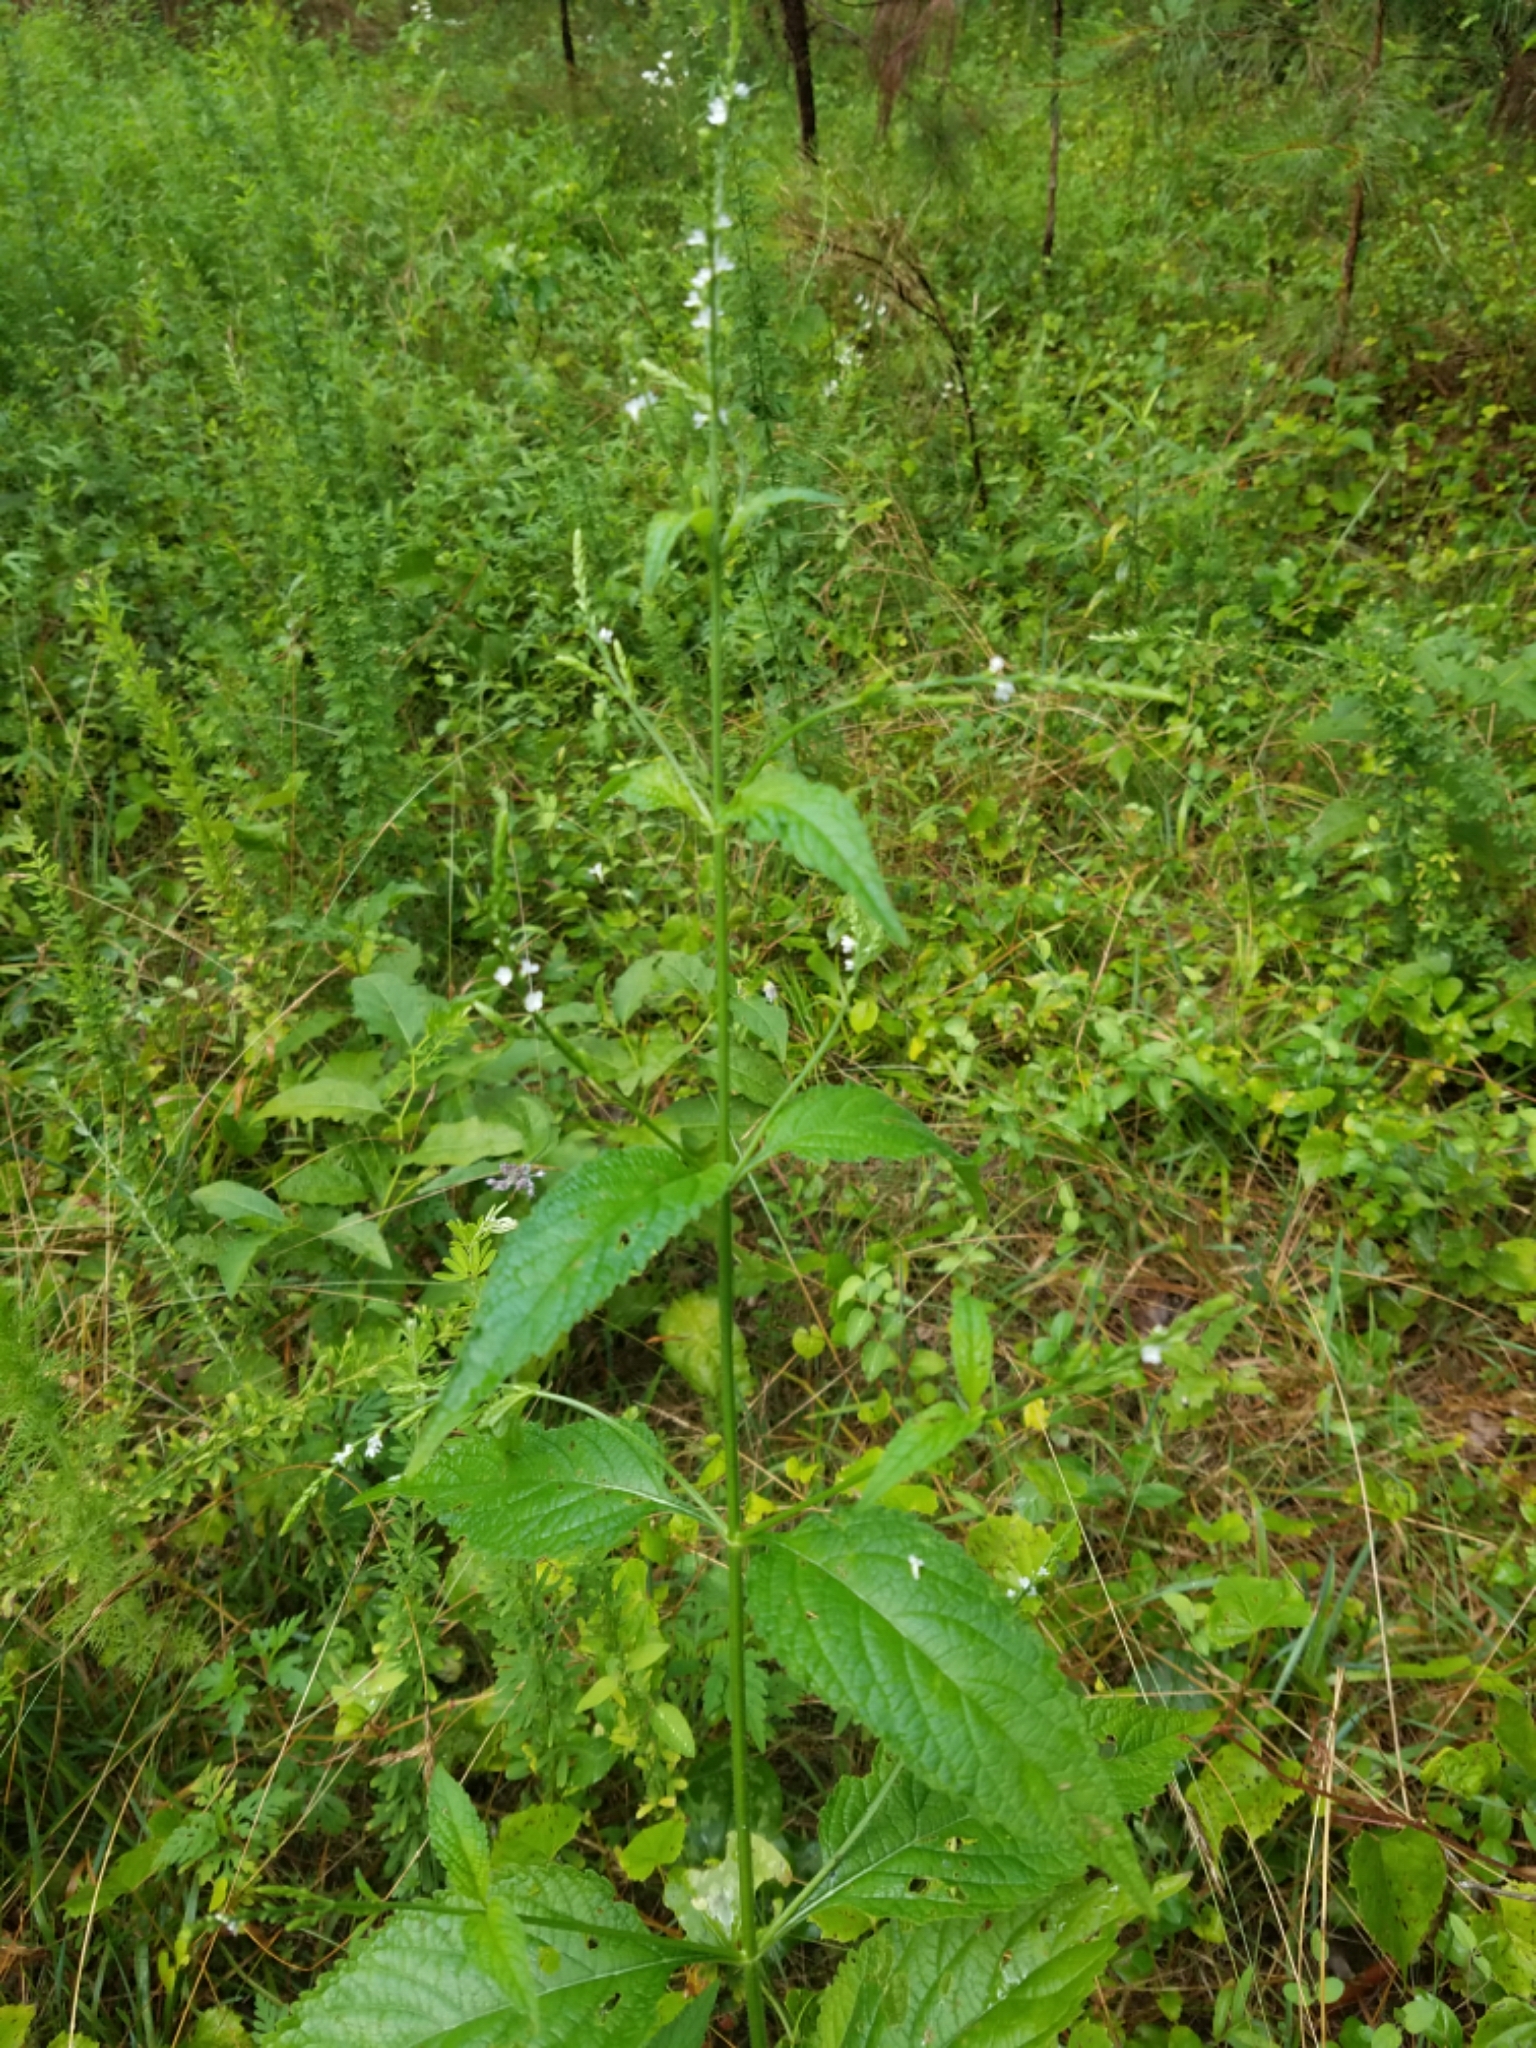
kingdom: Plantae
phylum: Tracheophyta
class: Magnoliopsida
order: Lamiales
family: Verbenaceae
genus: Verbena
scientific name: Verbena urticifolia
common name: Nettle-leaved vervain
